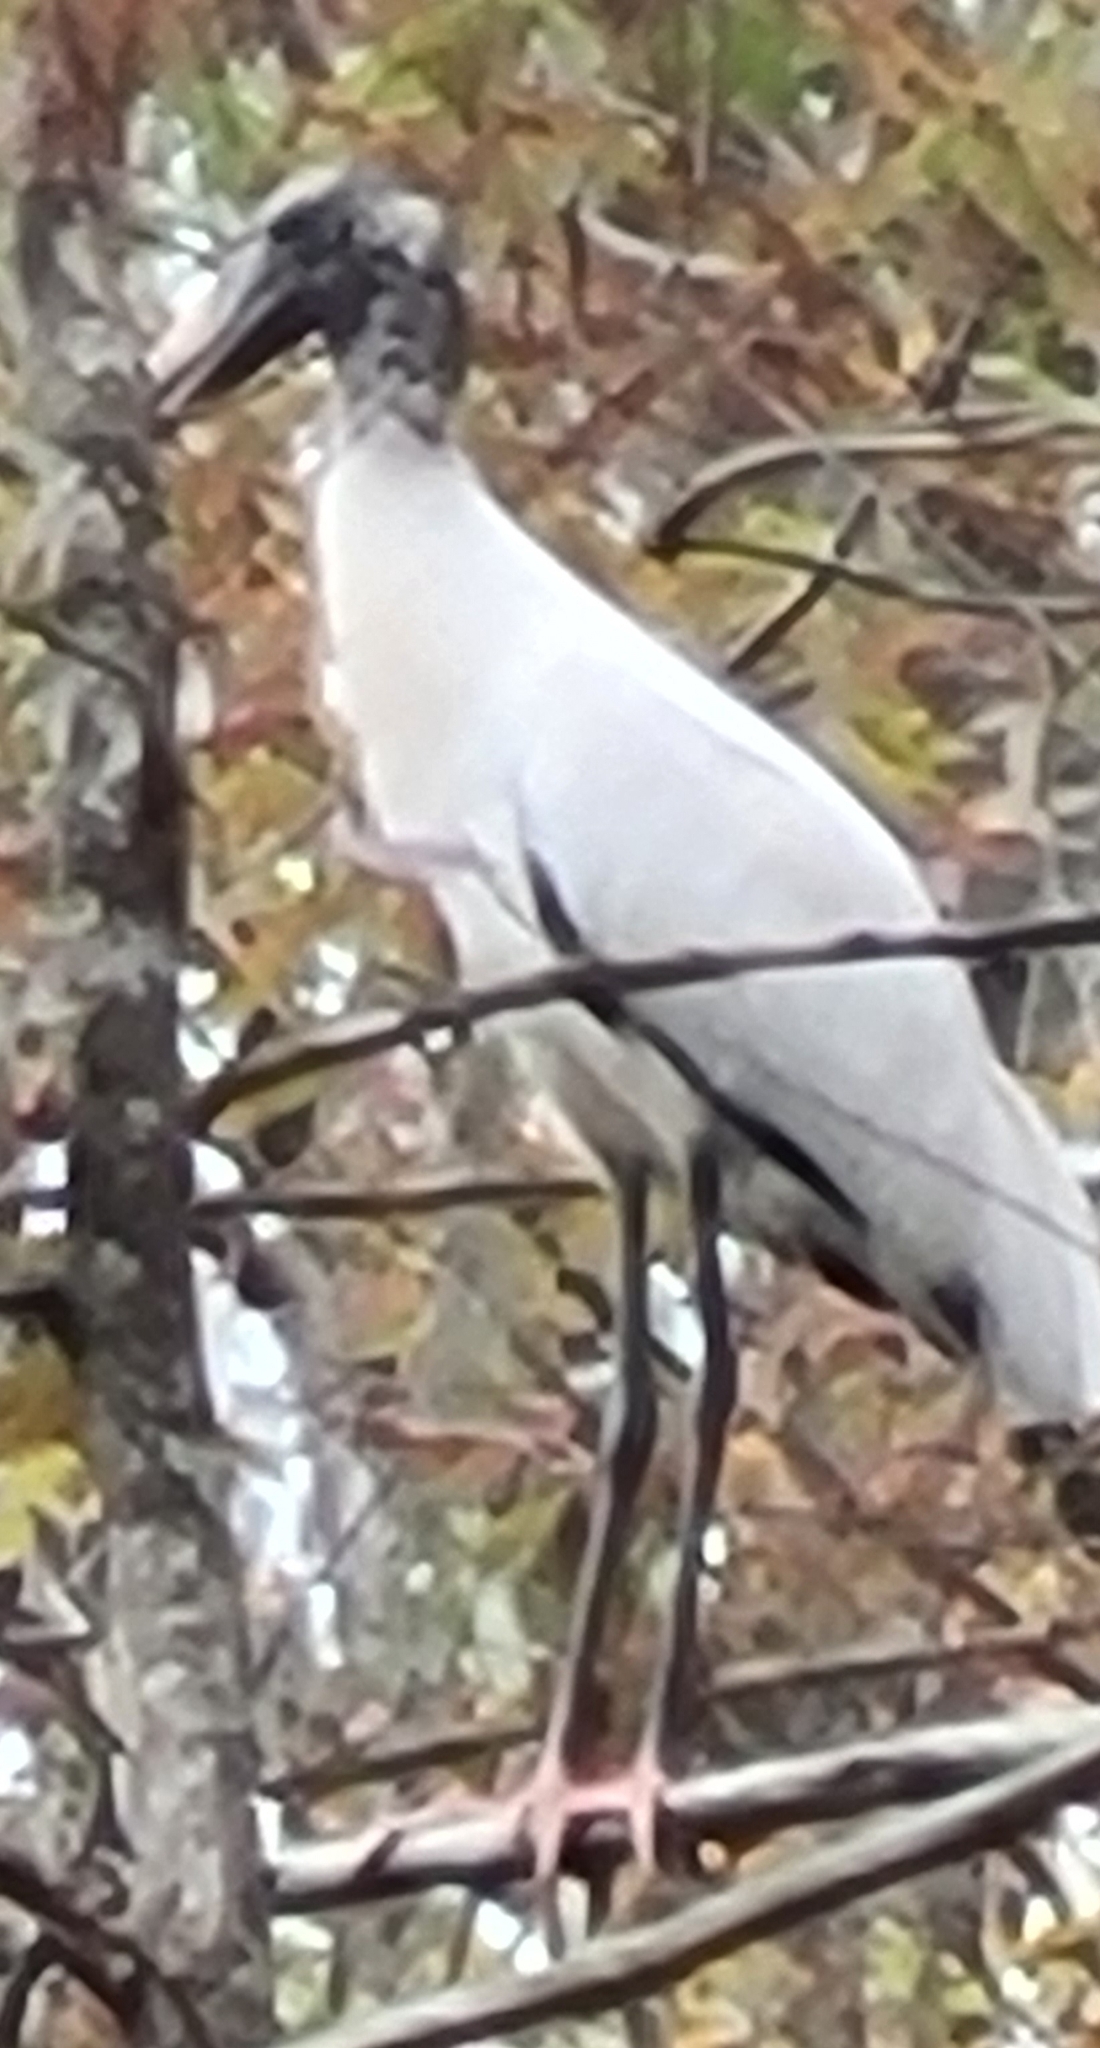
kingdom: Animalia
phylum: Chordata
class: Aves
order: Ciconiiformes
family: Ciconiidae
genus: Mycteria
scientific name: Mycteria americana
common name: Wood stork
